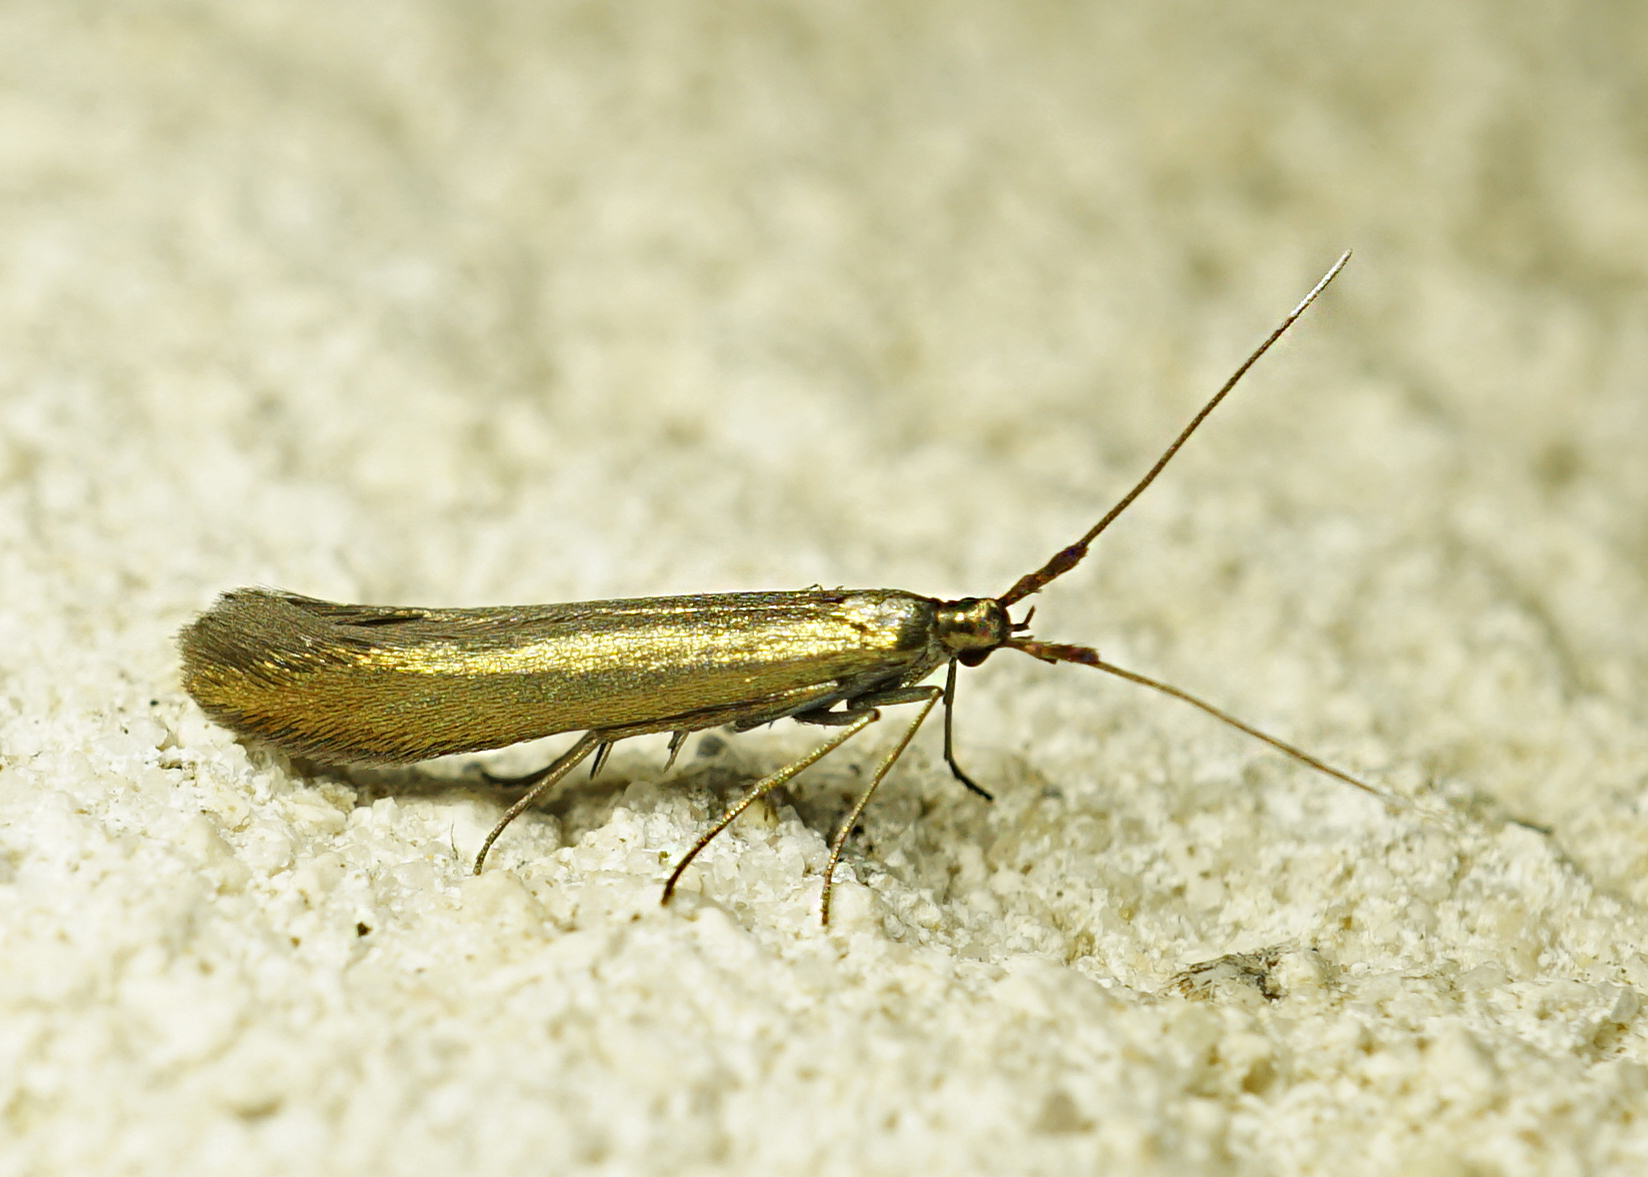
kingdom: Animalia
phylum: Arthropoda
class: Insecta
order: Lepidoptera
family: Coleophoridae
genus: Coleophora
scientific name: Coleophora trifolii
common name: Large clover case-bearer
